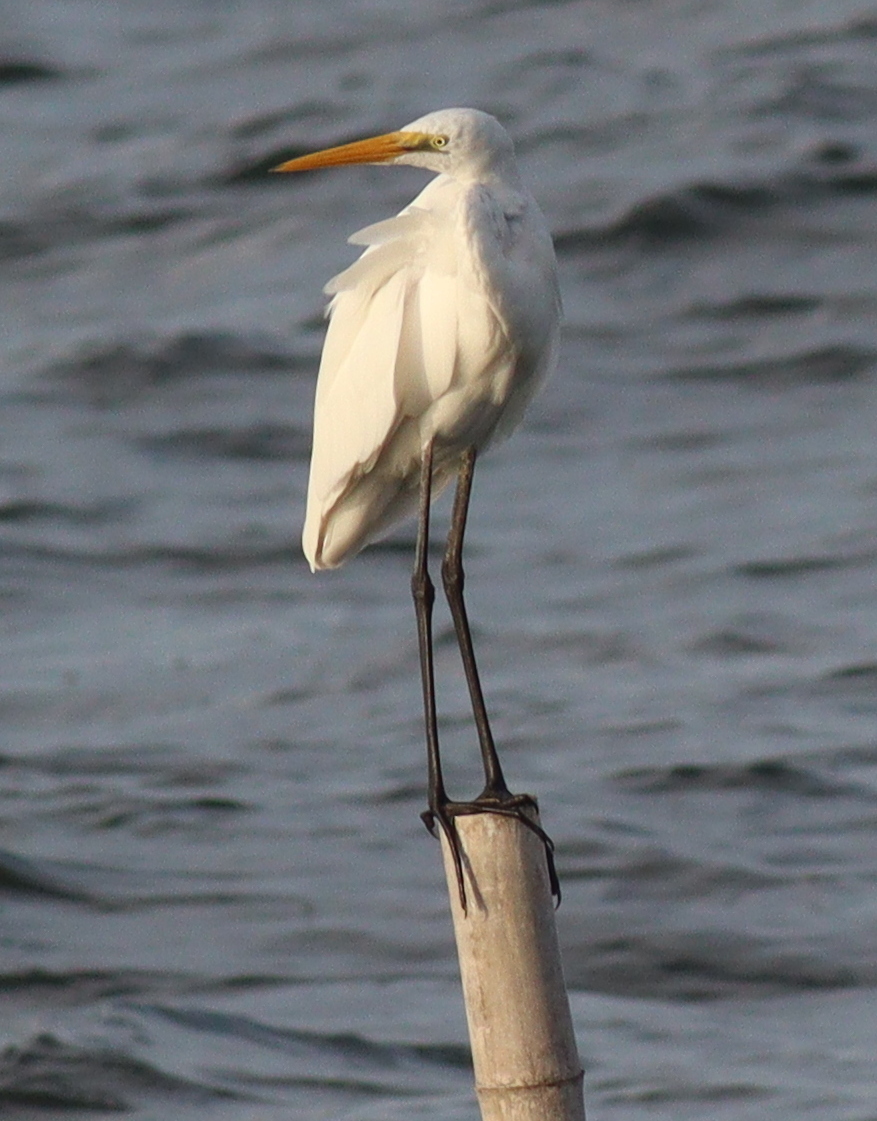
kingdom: Animalia
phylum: Chordata
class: Aves
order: Pelecaniformes
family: Ardeidae
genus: Ardea
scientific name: Ardea alba
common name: Great egret
